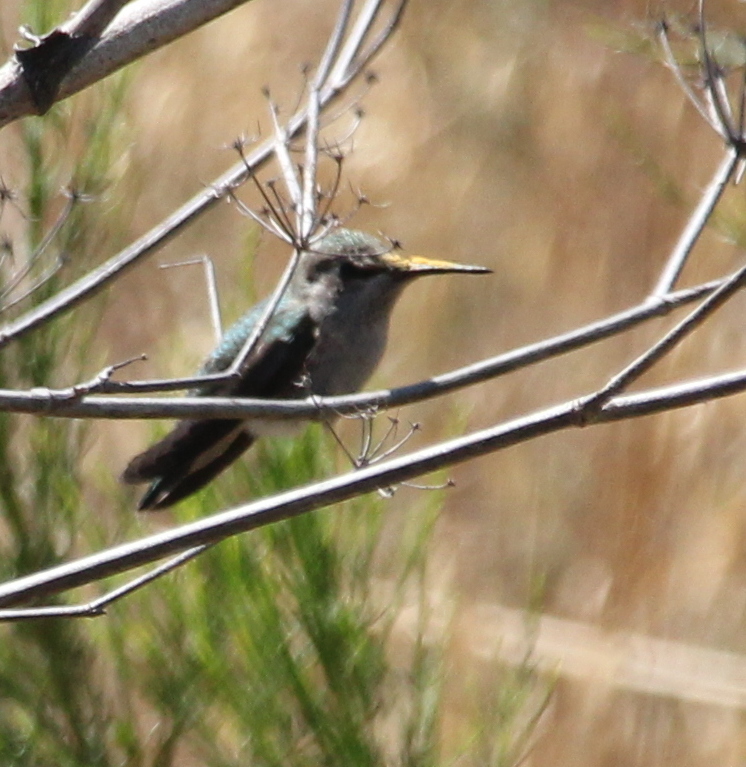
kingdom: Animalia
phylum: Chordata
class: Aves
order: Apodiformes
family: Trochilidae
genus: Calypte
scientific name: Calypte anna
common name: Anna's hummingbird
